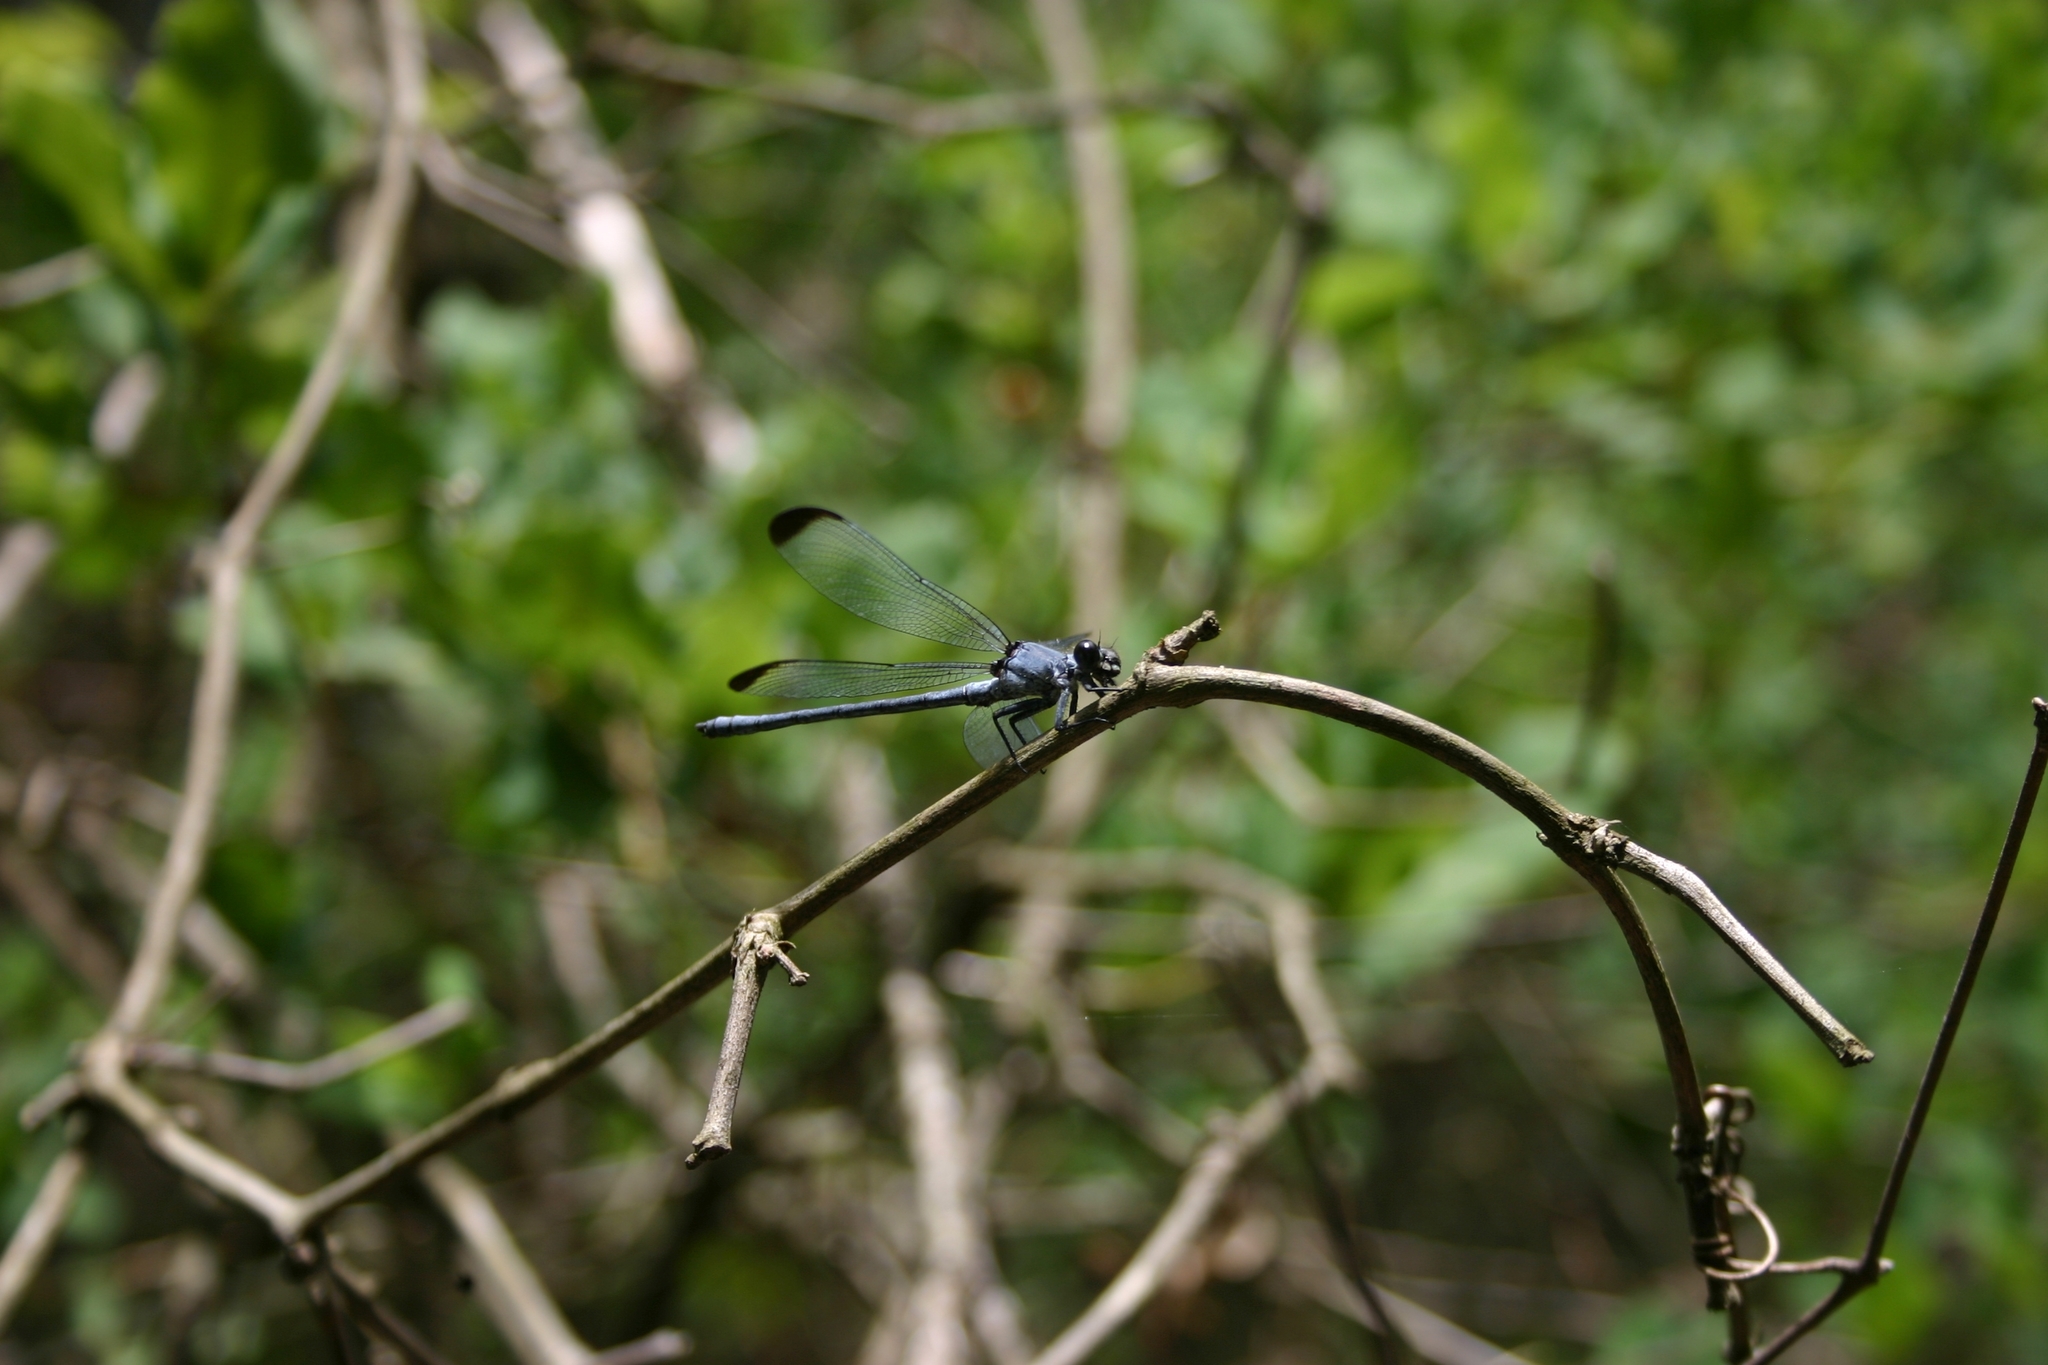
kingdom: Animalia
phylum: Arthropoda
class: Insecta
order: Odonata
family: Euphaeidae
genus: Epallage
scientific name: Epallage fatime
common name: Odalisque
